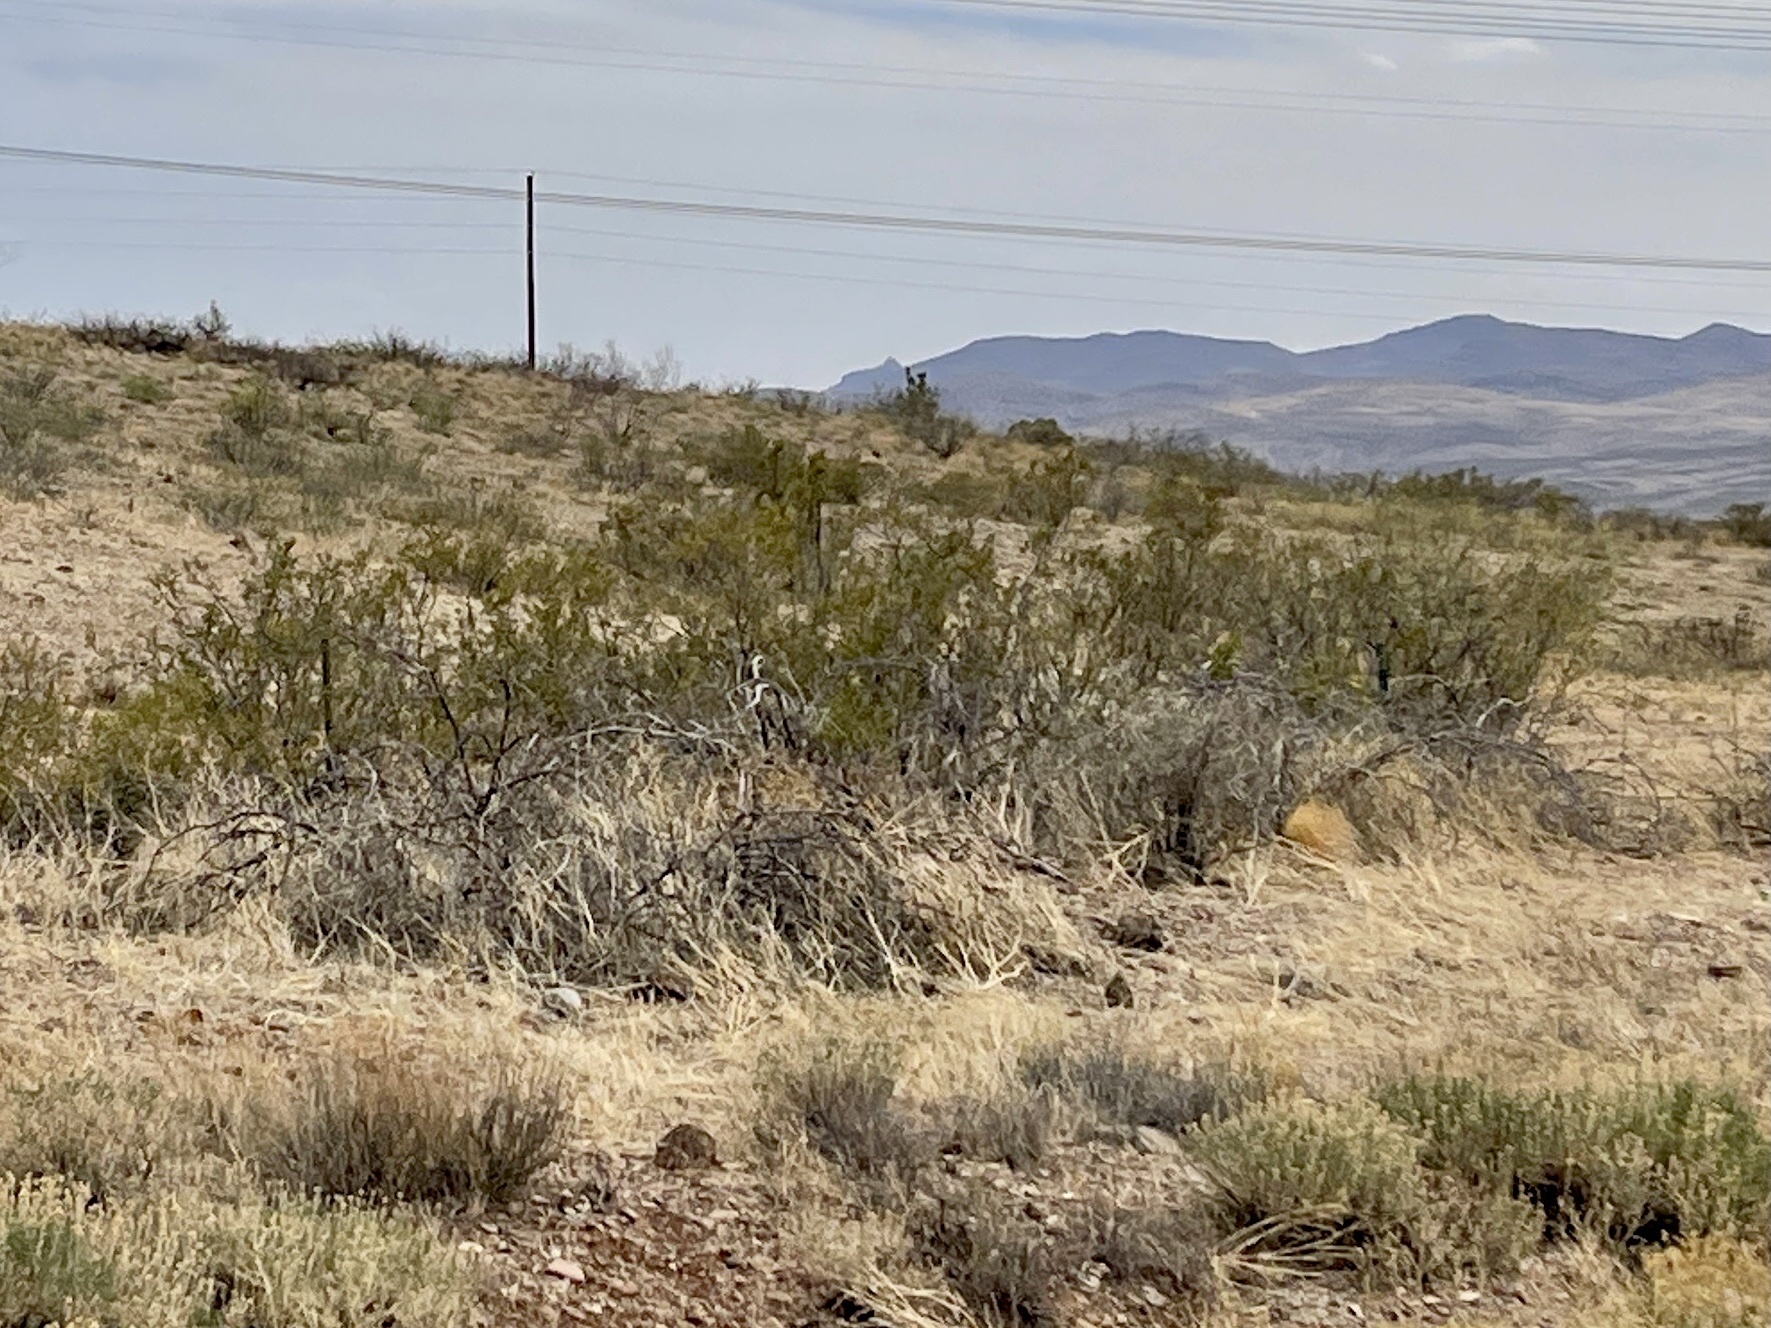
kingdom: Plantae
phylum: Tracheophyta
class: Magnoliopsida
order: Zygophyllales
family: Zygophyllaceae
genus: Larrea
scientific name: Larrea tridentata
